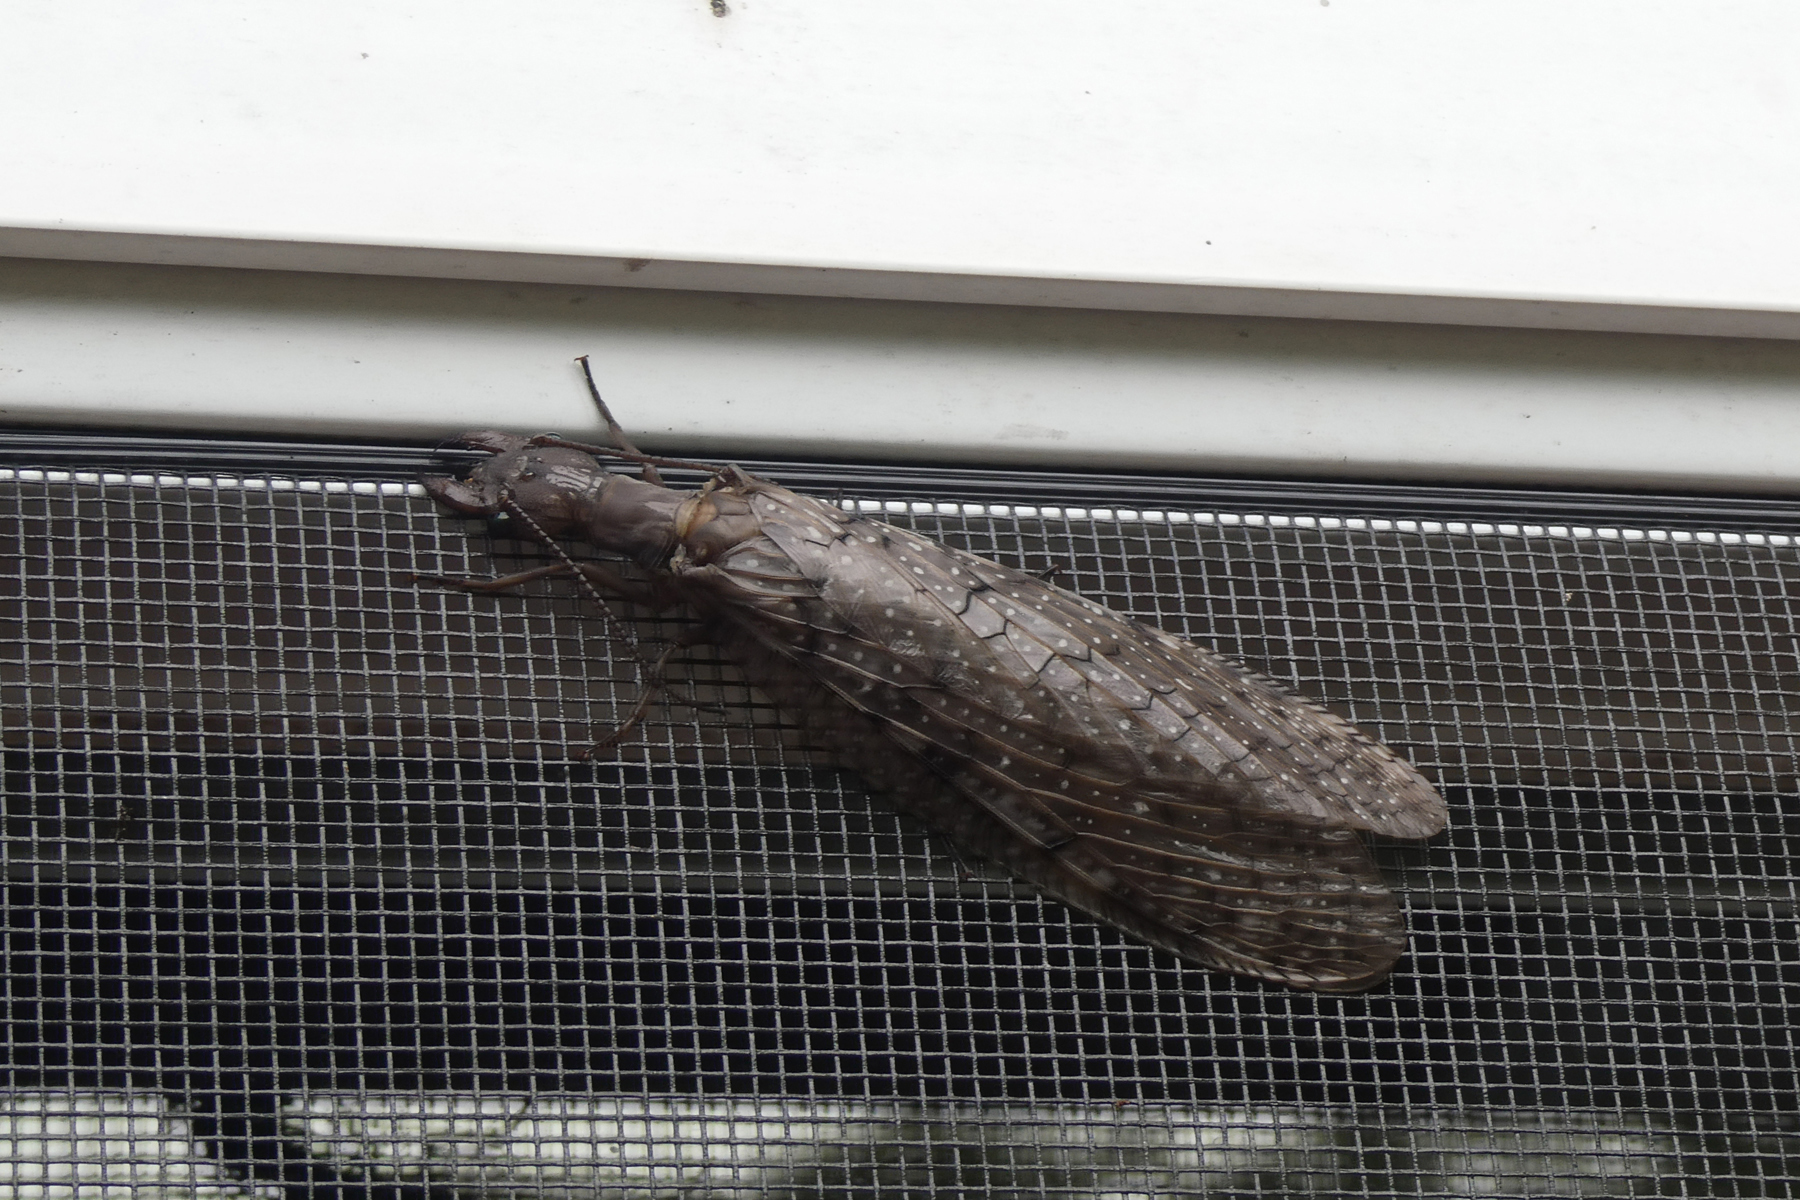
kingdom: Animalia
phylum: Arthropoda
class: Insecta
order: Megaloptera
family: Corydalidae
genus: Corydalus
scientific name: Corydalus cornutus
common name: Dobsonfly
